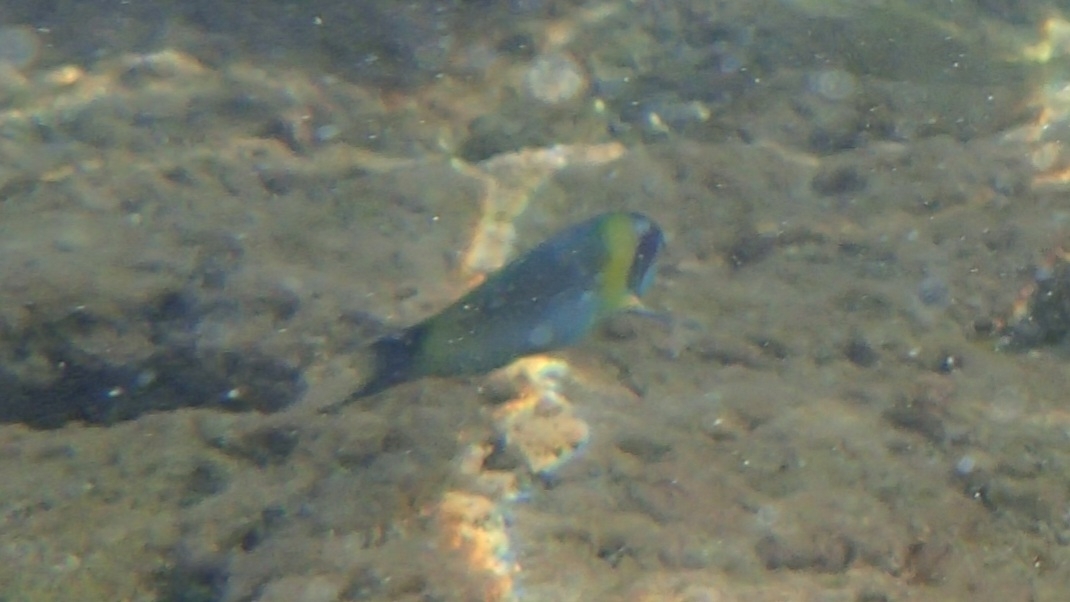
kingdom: Animalia
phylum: Chordata
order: Perciformes
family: Labridae
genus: Thalassoma
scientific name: Thalassoma genivittatum
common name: Red-cheek wrasse
